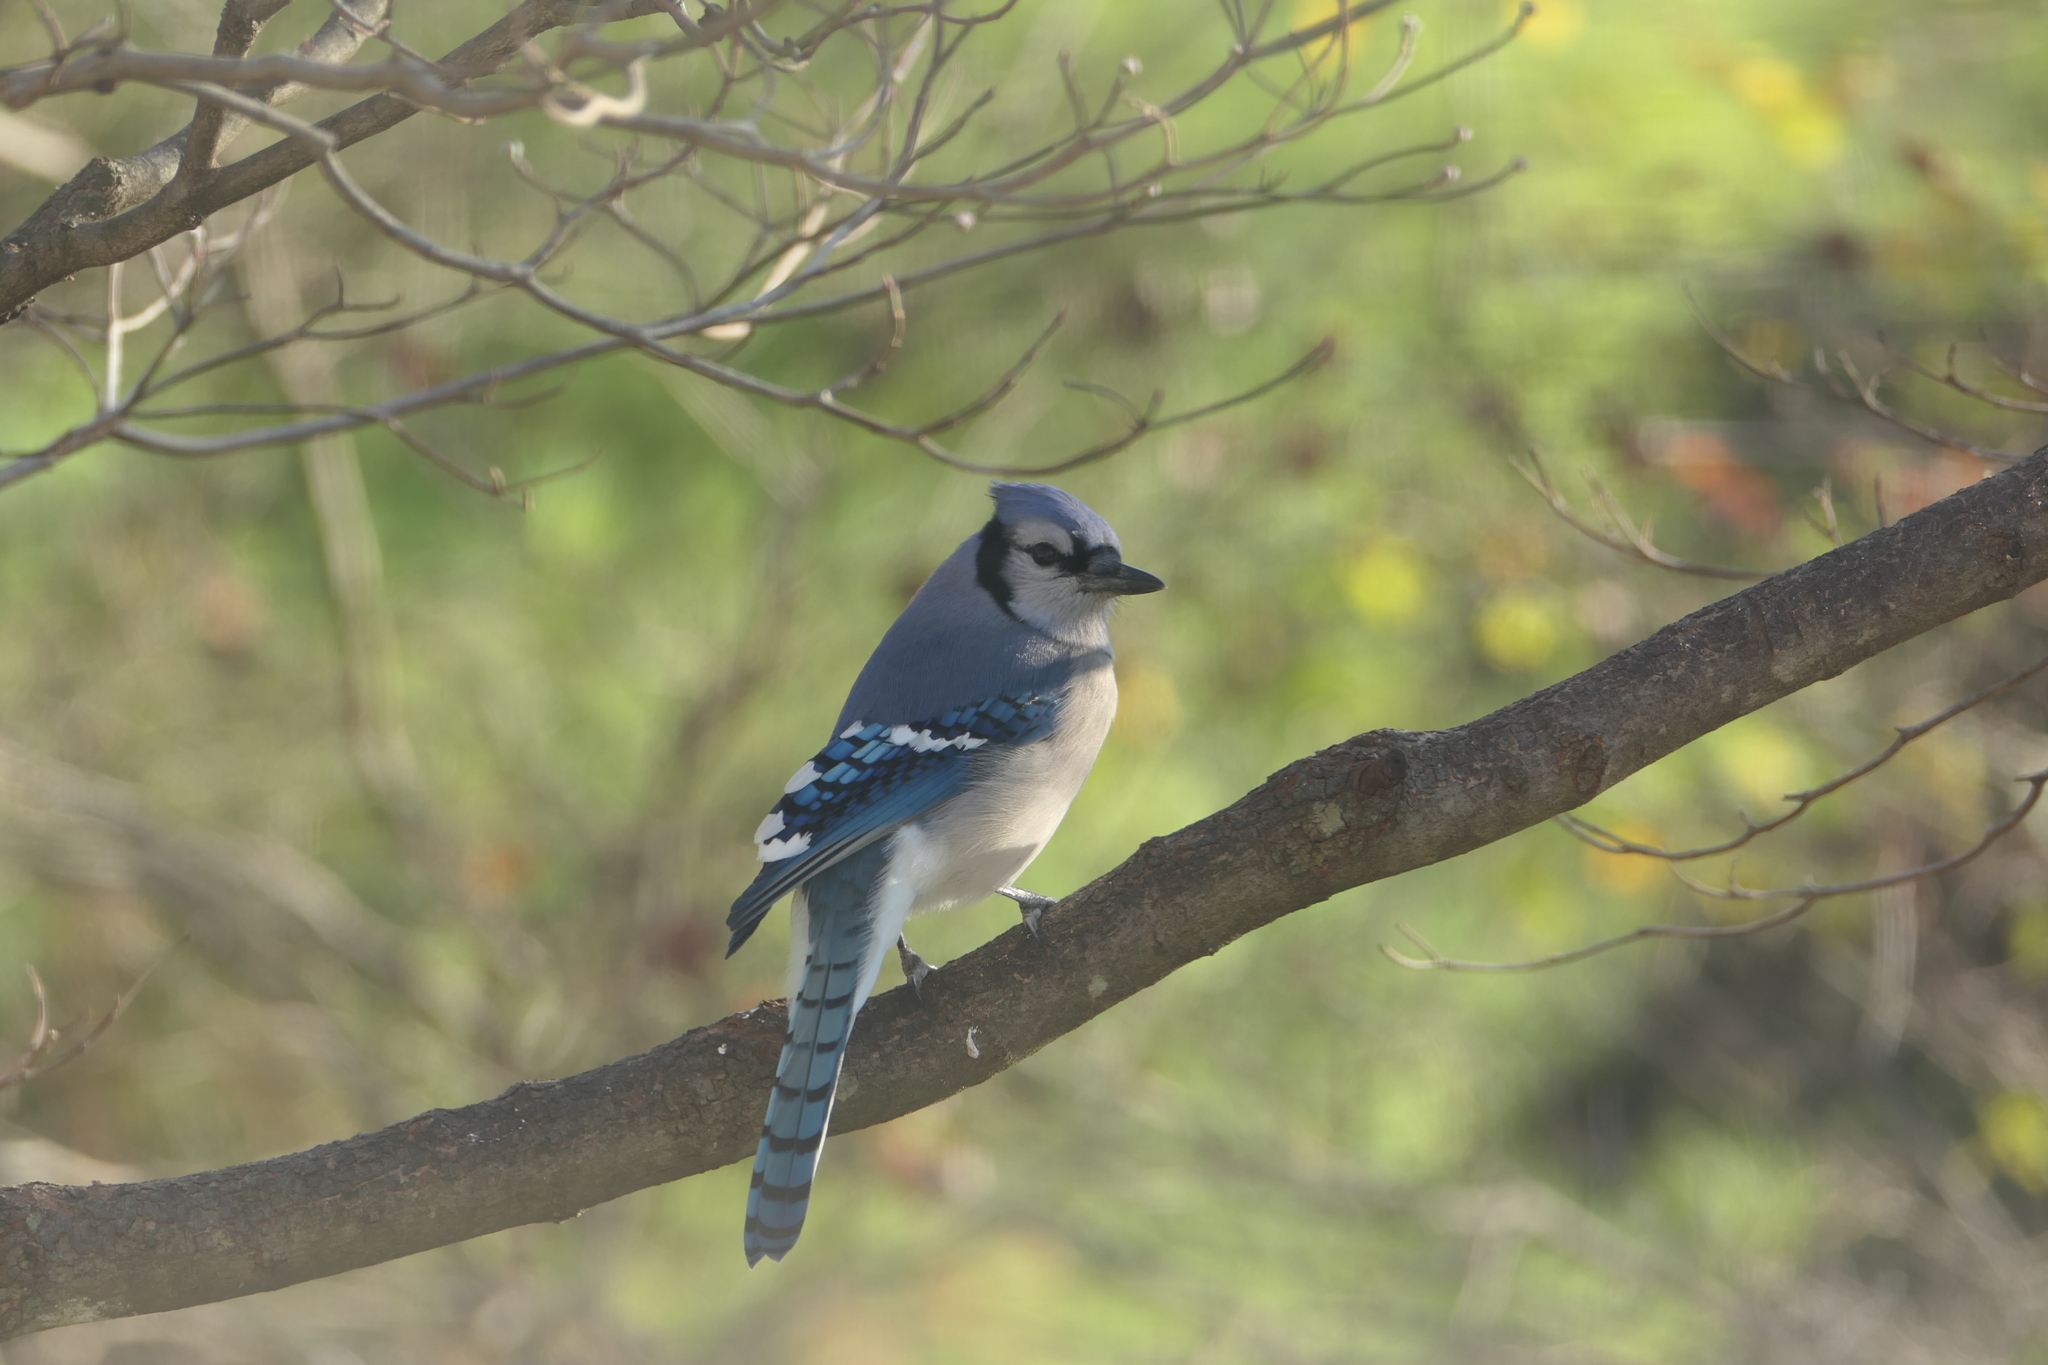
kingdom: Animalia
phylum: Chordata
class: Aves
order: Passeriformes
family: Corvidae
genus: Cyanocitta
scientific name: Cyanocitta cristata
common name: Blue jay
